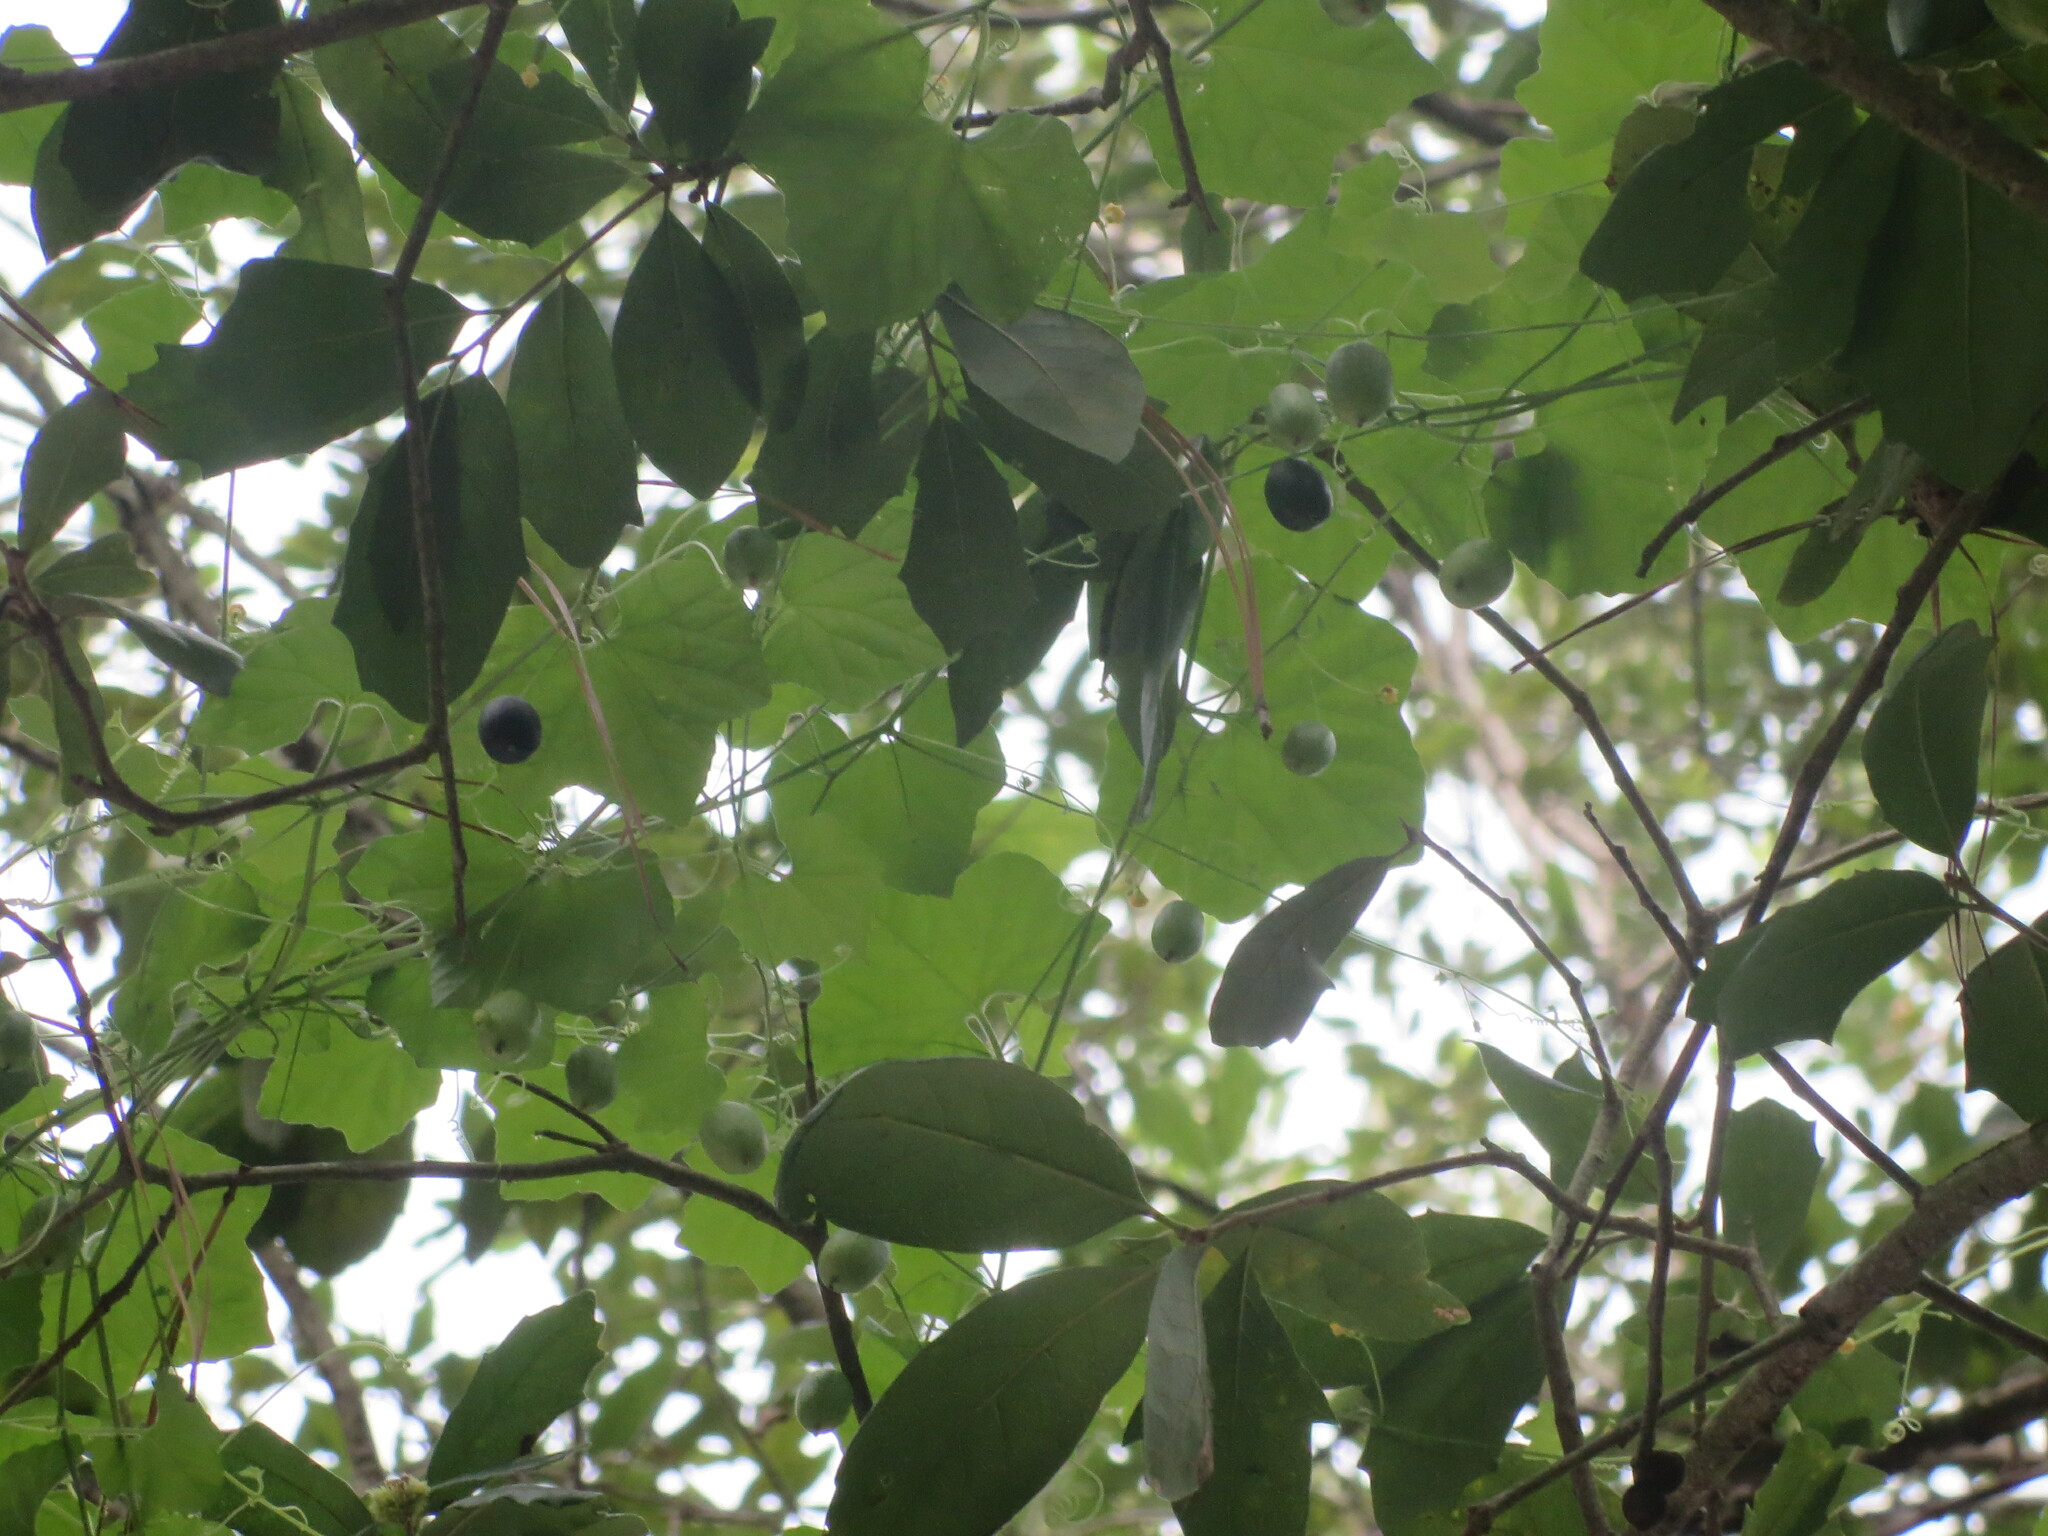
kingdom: Plantae
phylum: Tracheophyta
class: Magnoliopsida
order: Cucurbitales
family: Cucurbitaceae
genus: Melothria
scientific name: Melothria pendula
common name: Creeping-cucumber
